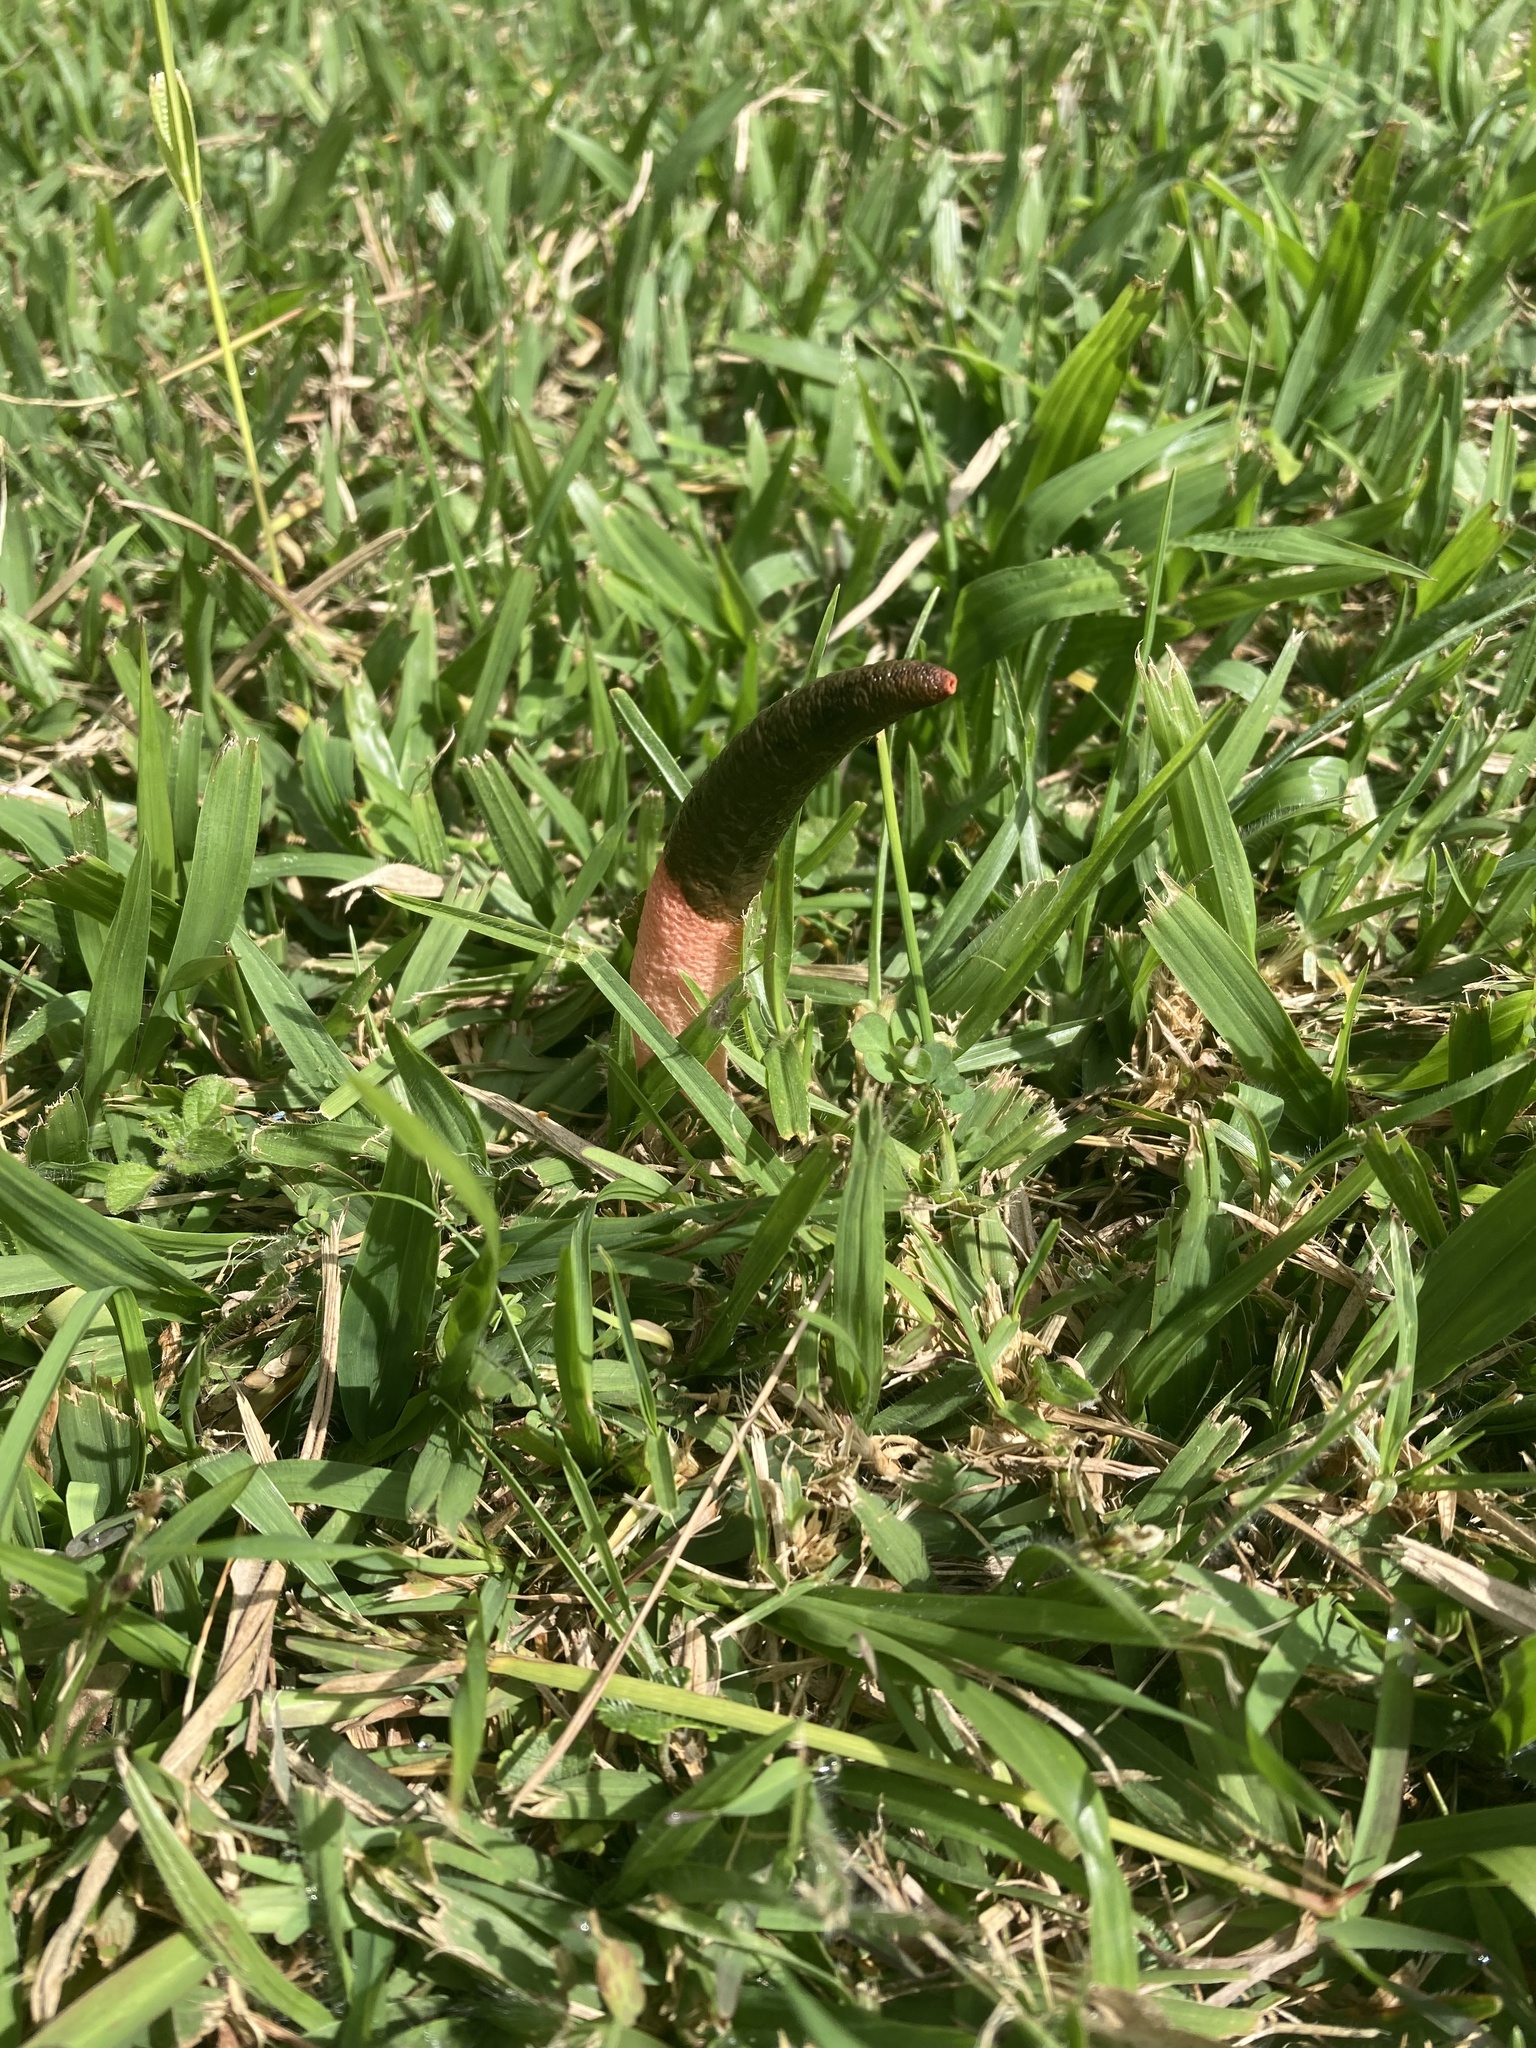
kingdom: Fungi
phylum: Basidiomycota
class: Agaricomycetes
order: Phallales
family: Phallaceae
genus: Mutinus
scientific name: Mutinus elegans
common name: Devil's dipstick
